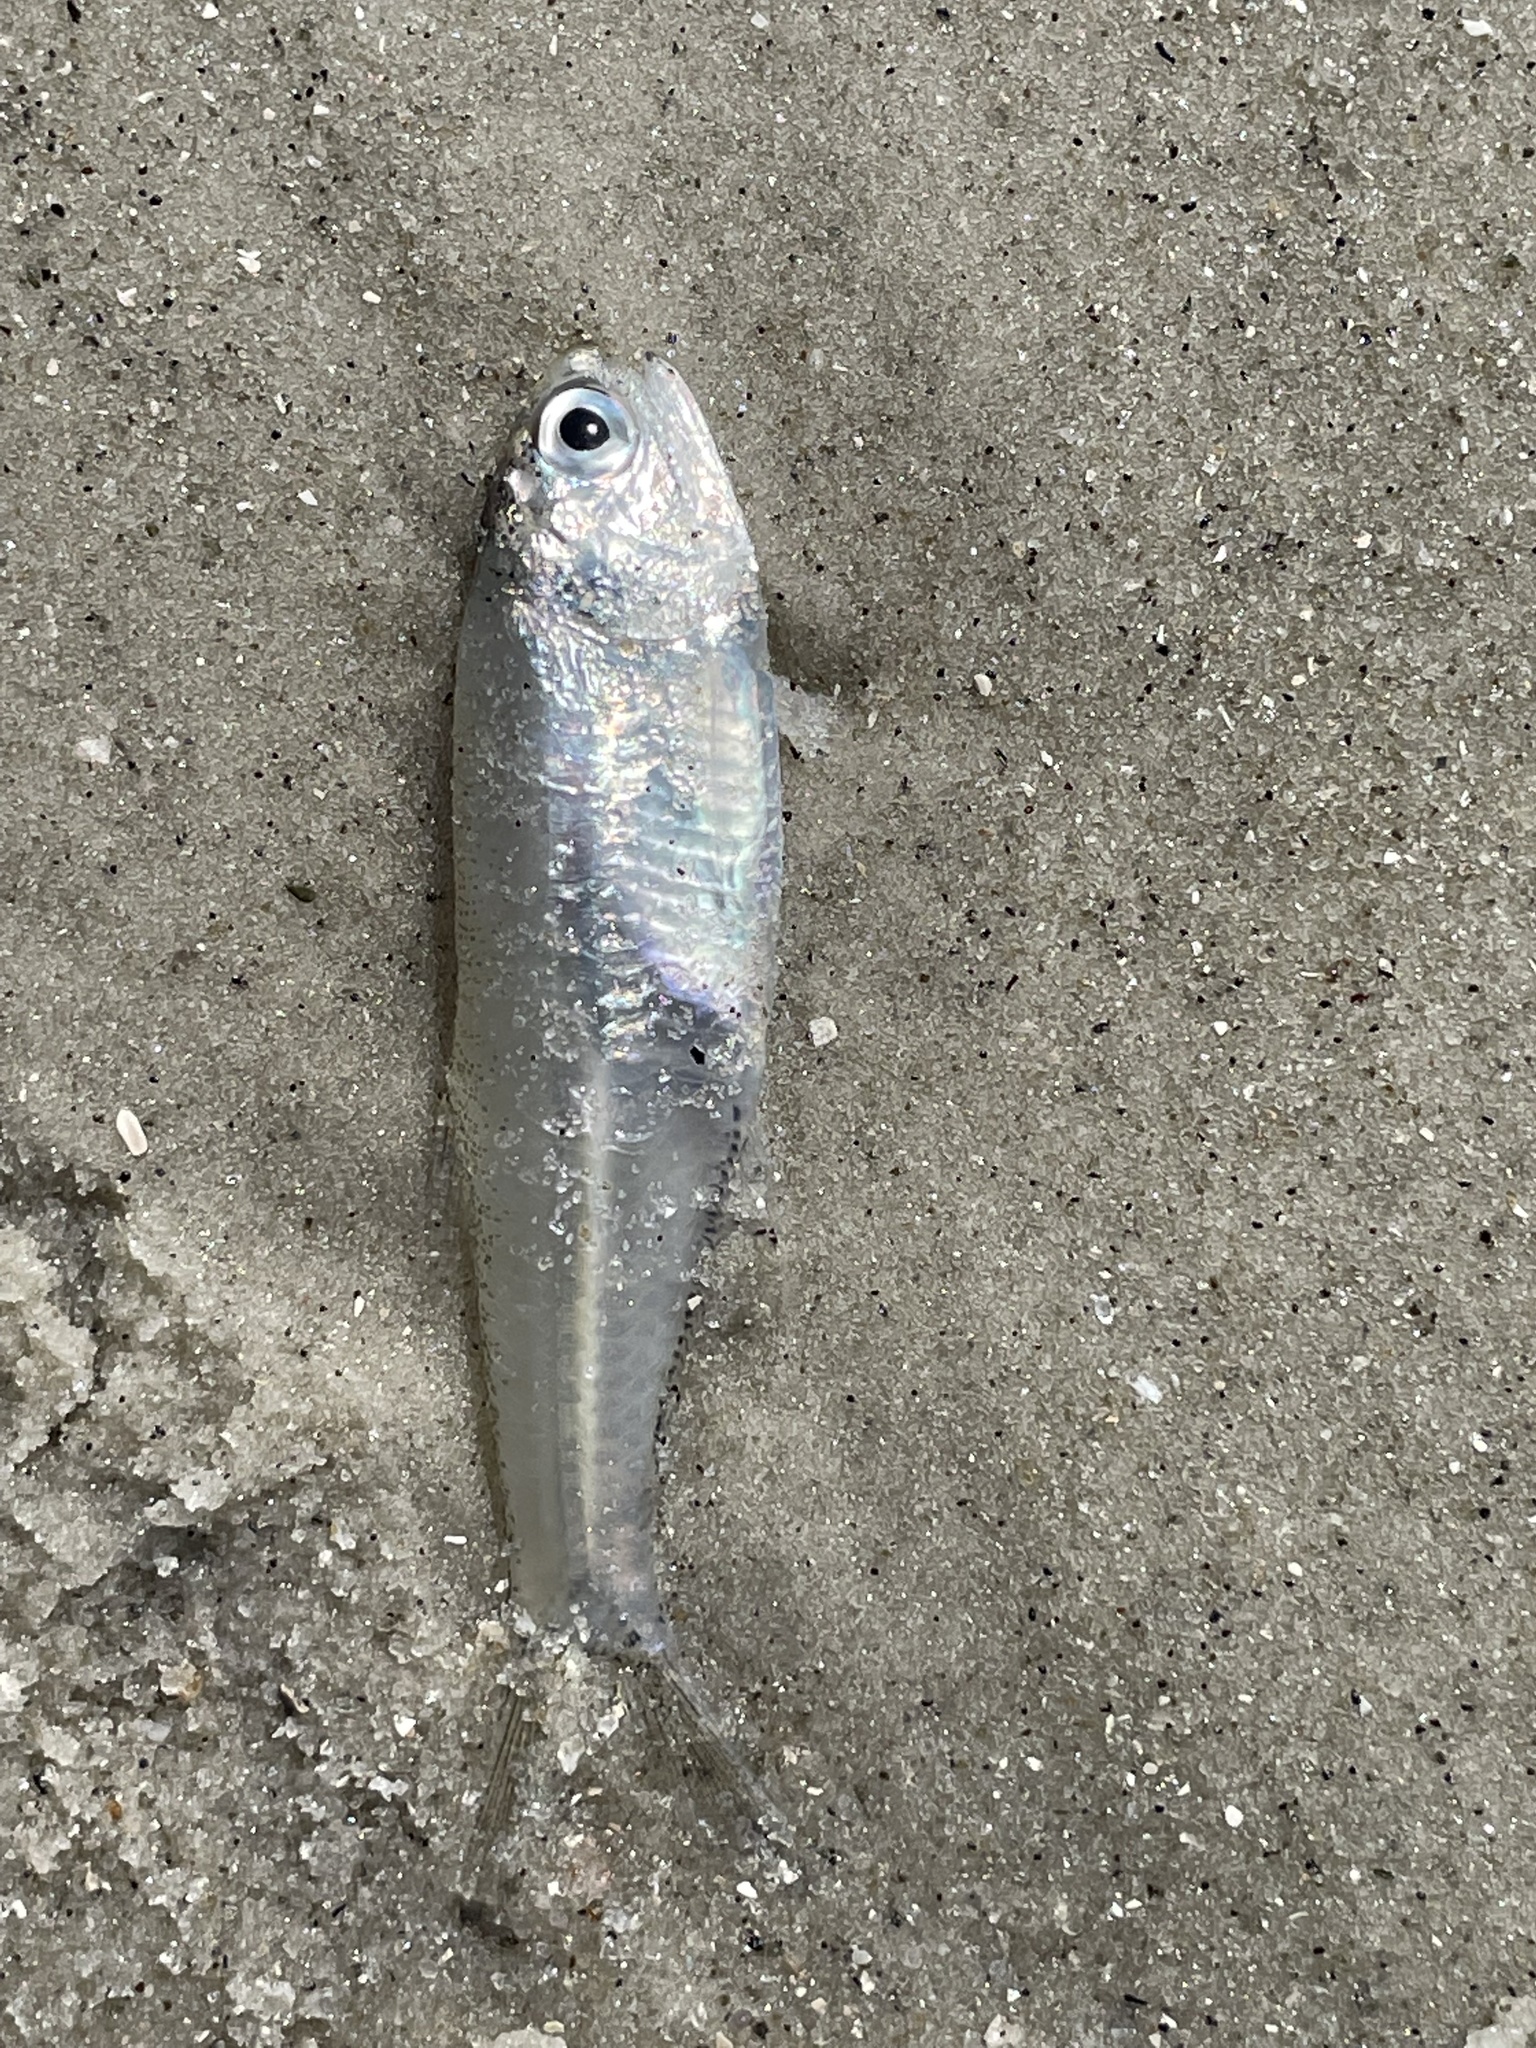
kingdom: Animalia
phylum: Chordata
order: Clupeiformes
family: Engraulidae
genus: Anchoa
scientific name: Anchoa mitchilli
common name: Bay anchovy
